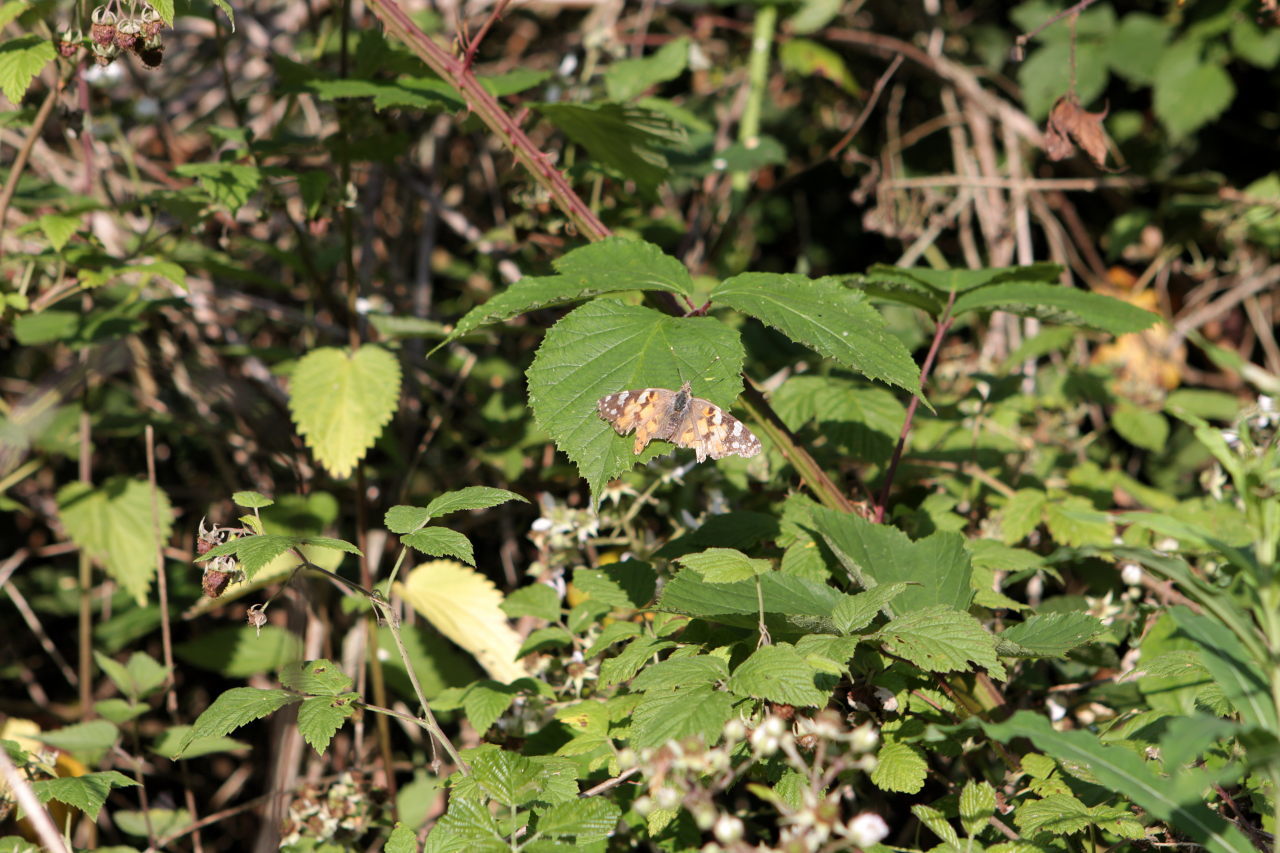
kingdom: Animalia
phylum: Arthropoda
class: Insecta
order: Lepidoptera
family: Nymphalidae
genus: Vanessa
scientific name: Vanessa cardui
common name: Painted lady
